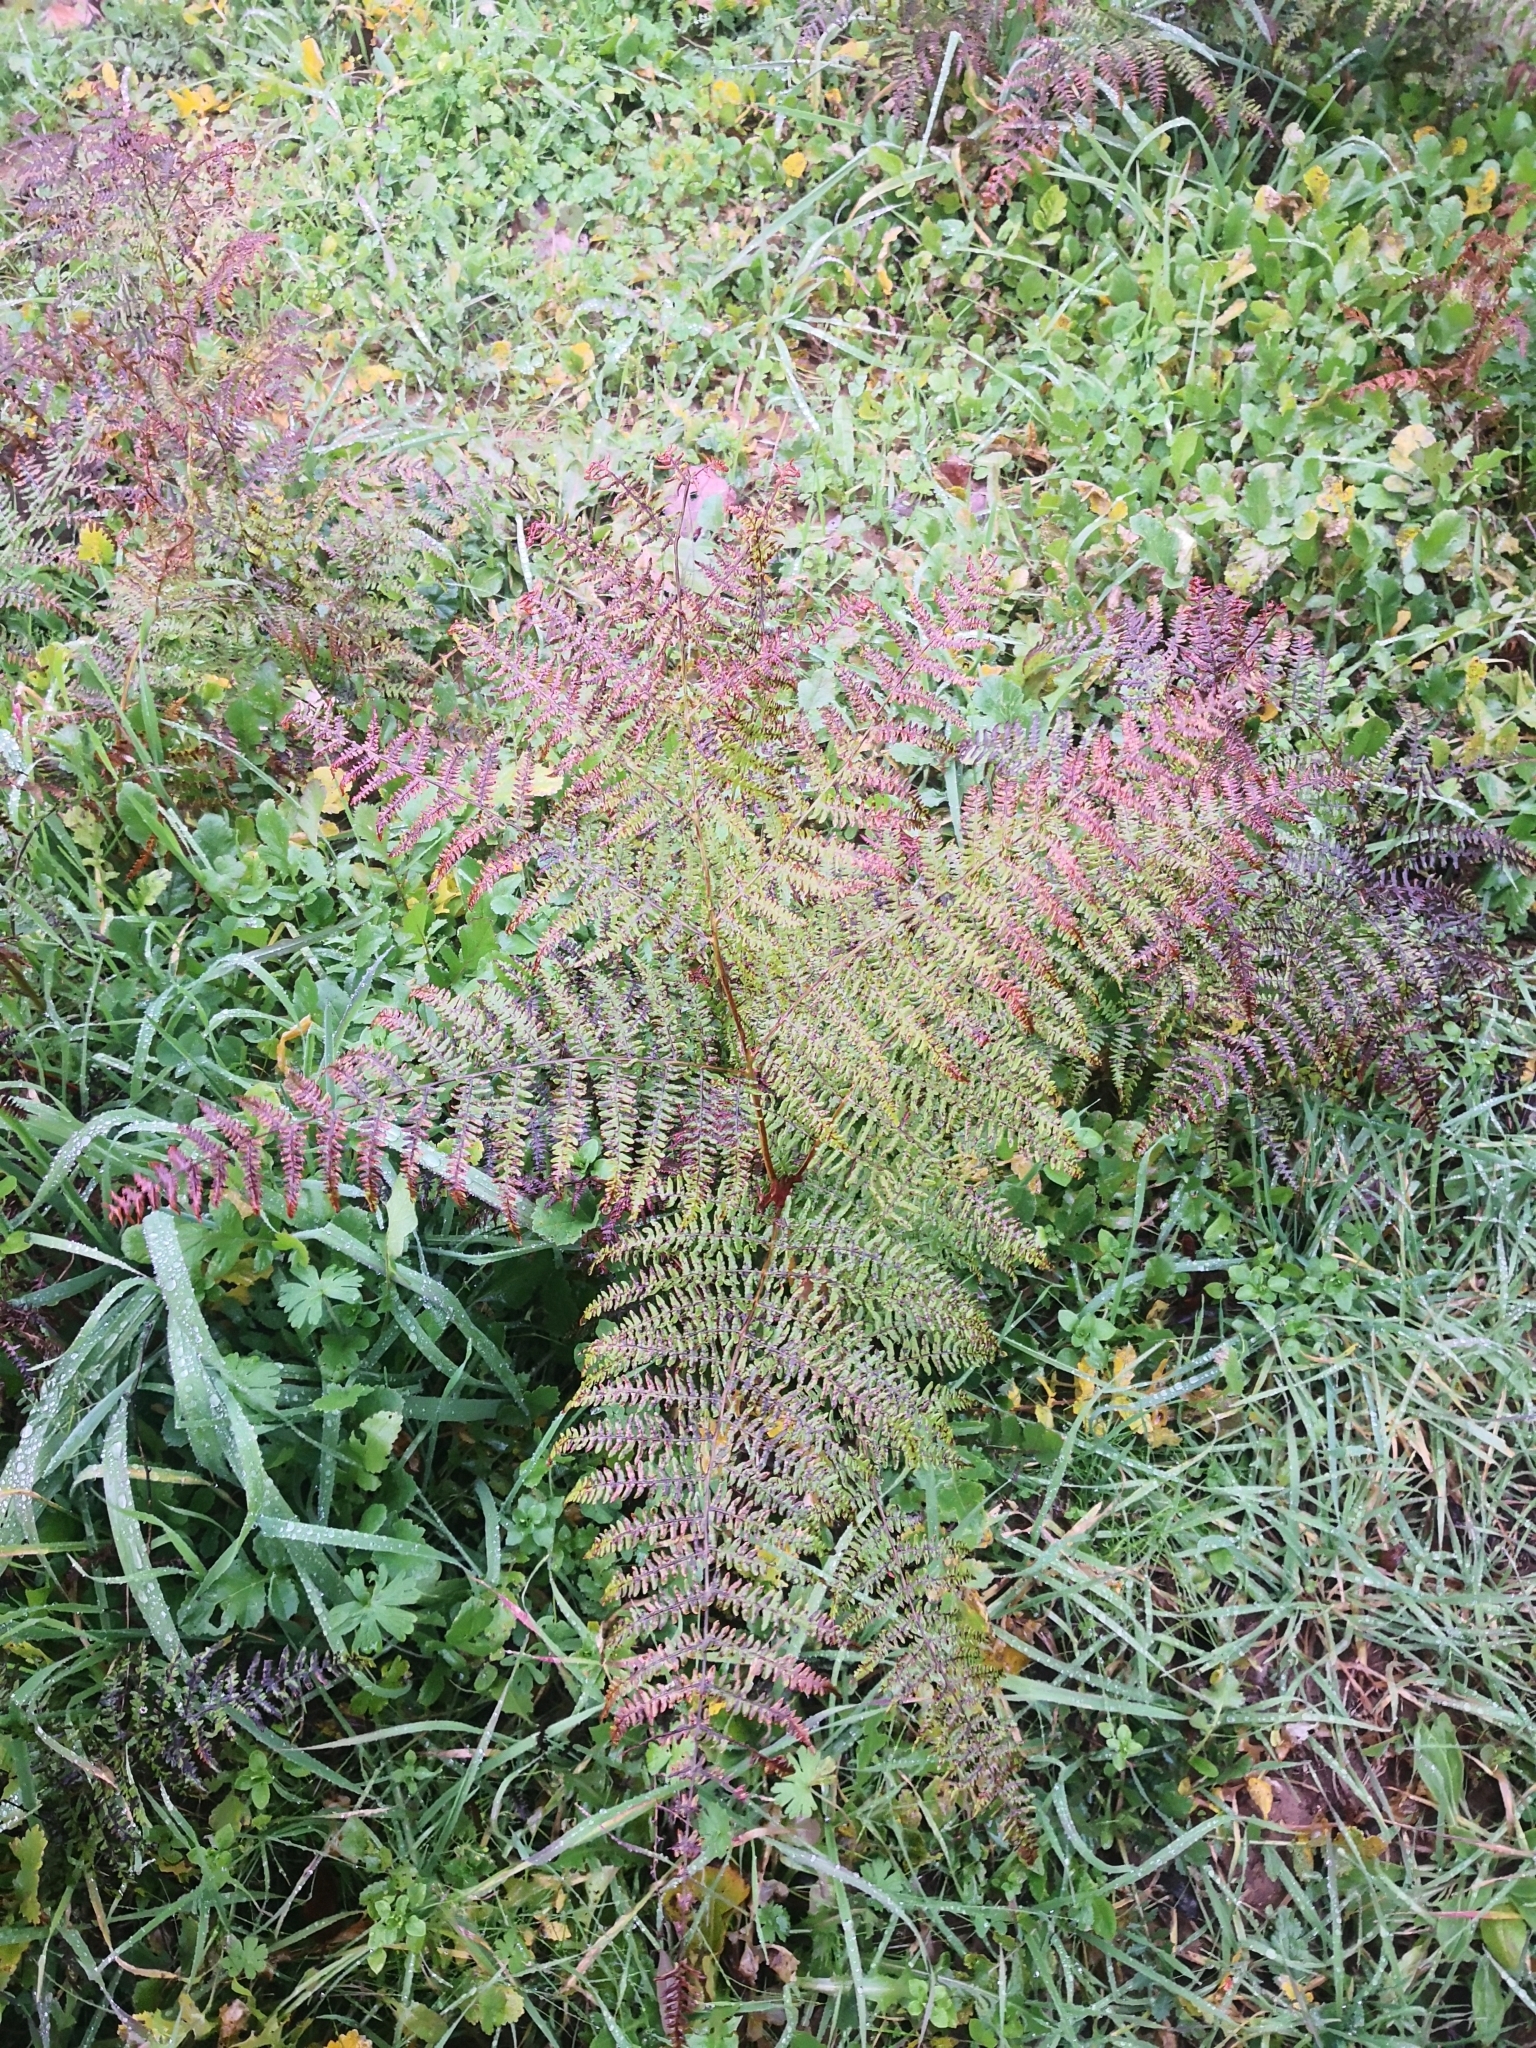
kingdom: Plantae
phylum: Tracheophyta
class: Polypodiopsida
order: Polypodiales
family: Dennstaedtiaceae
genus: Pteridium
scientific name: Pteridium aquilinum
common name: Bracken
